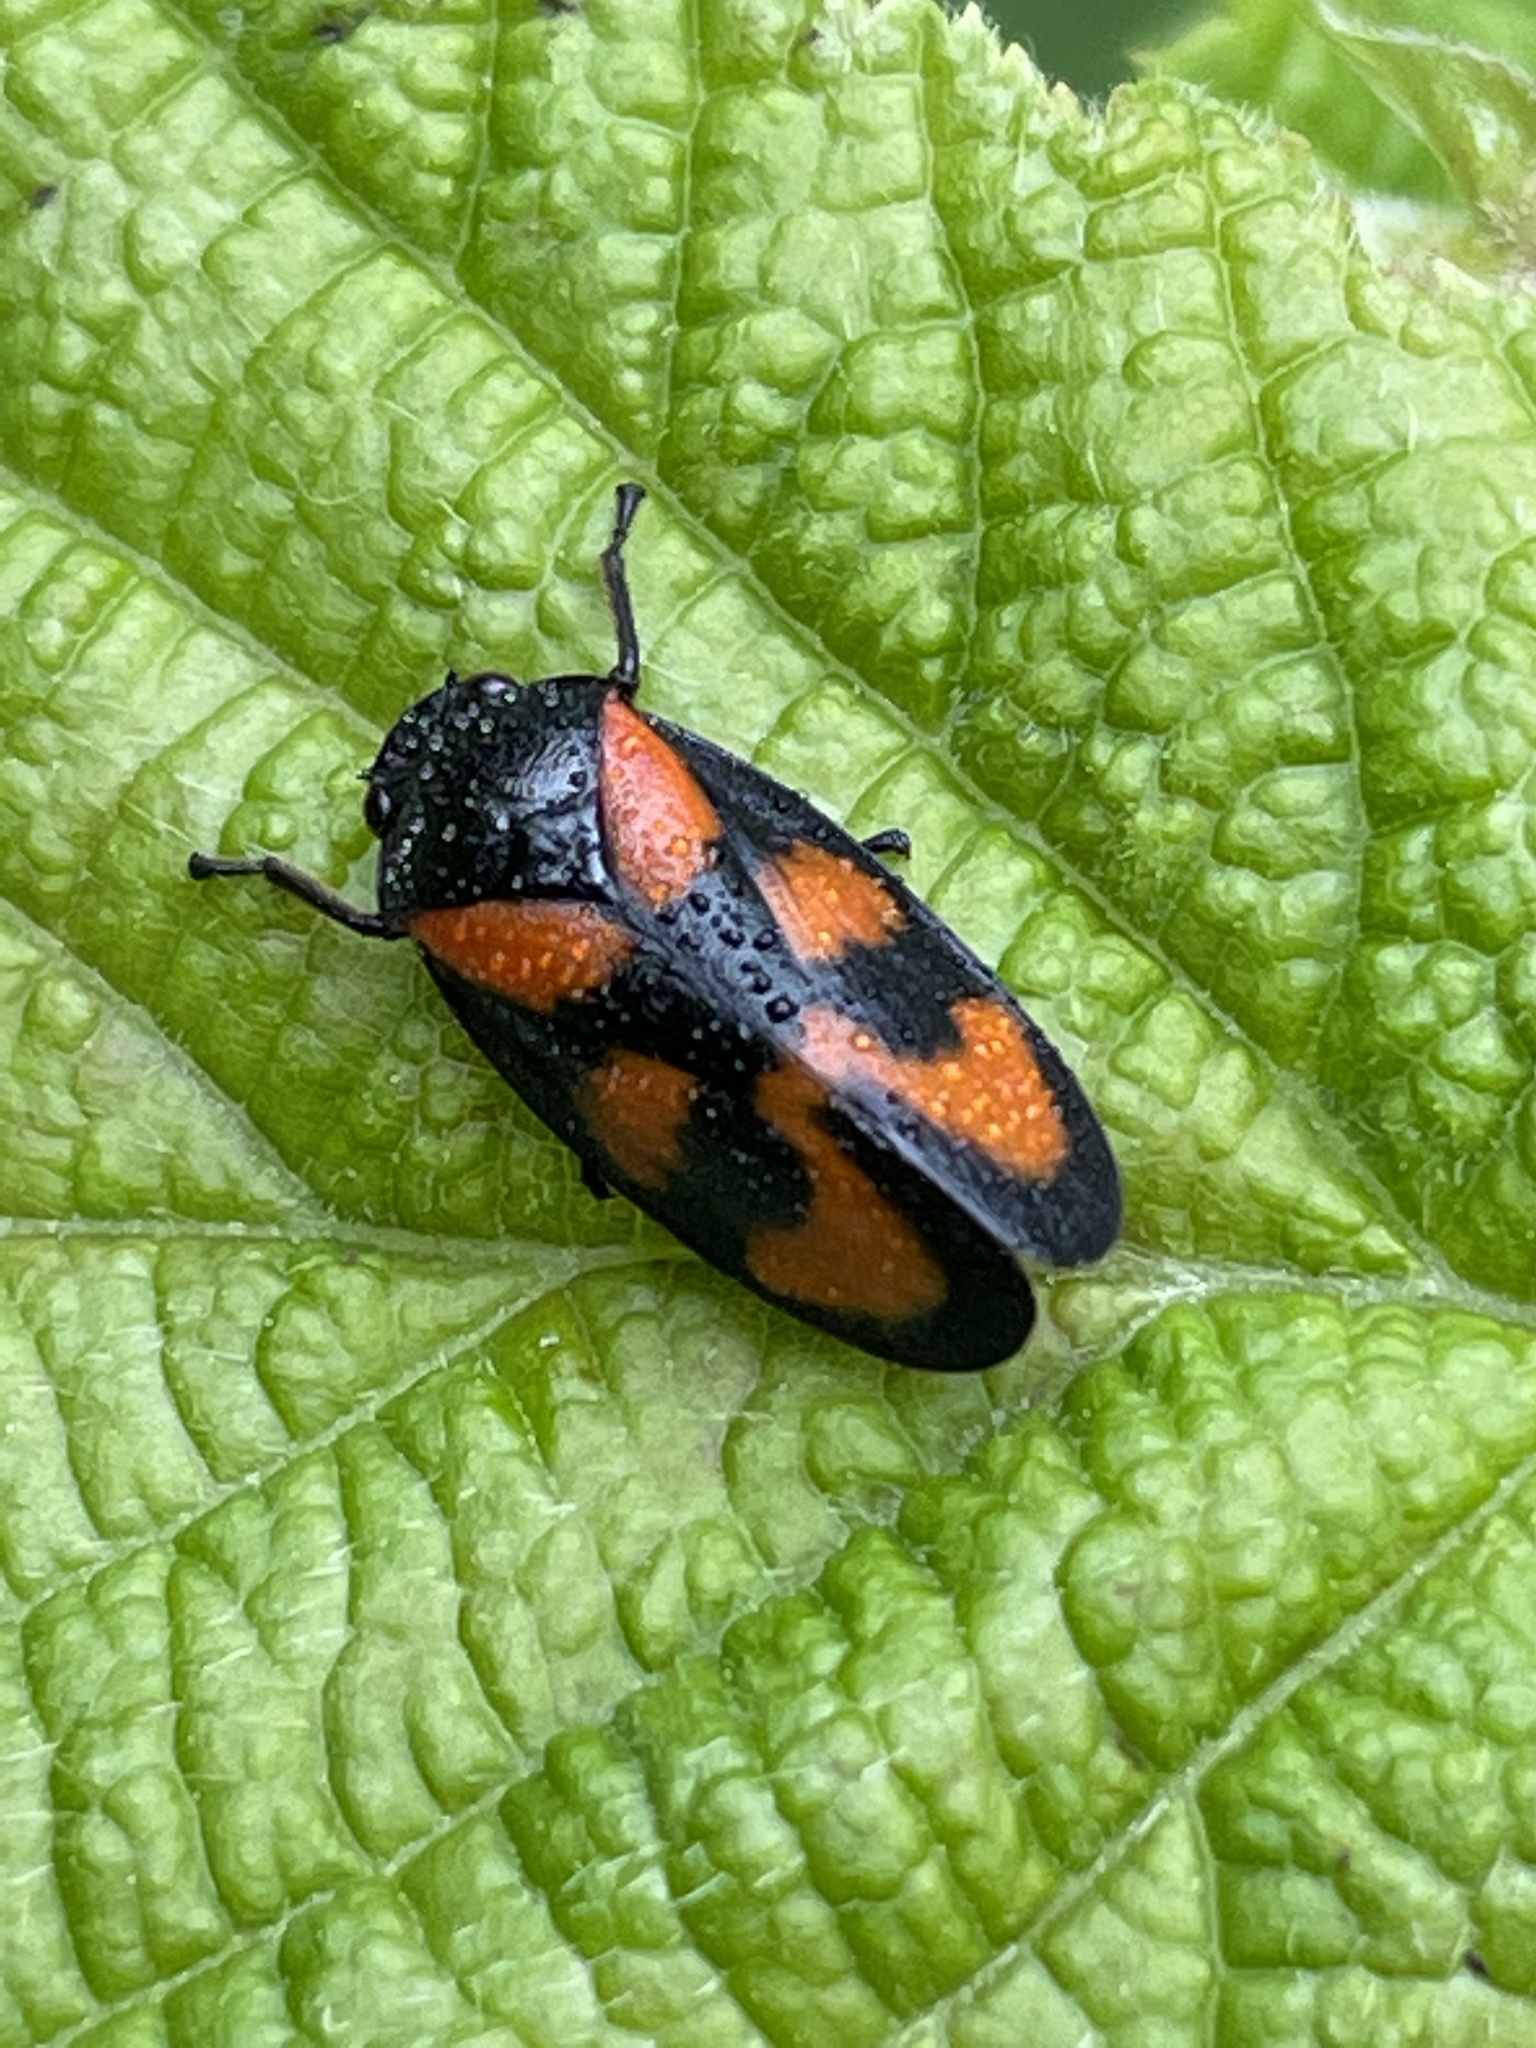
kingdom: Animalia
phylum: Arthropoda
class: Insecta
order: Hemiptera
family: Cercopidae
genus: Cercopis
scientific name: Cercopis vulnerata
